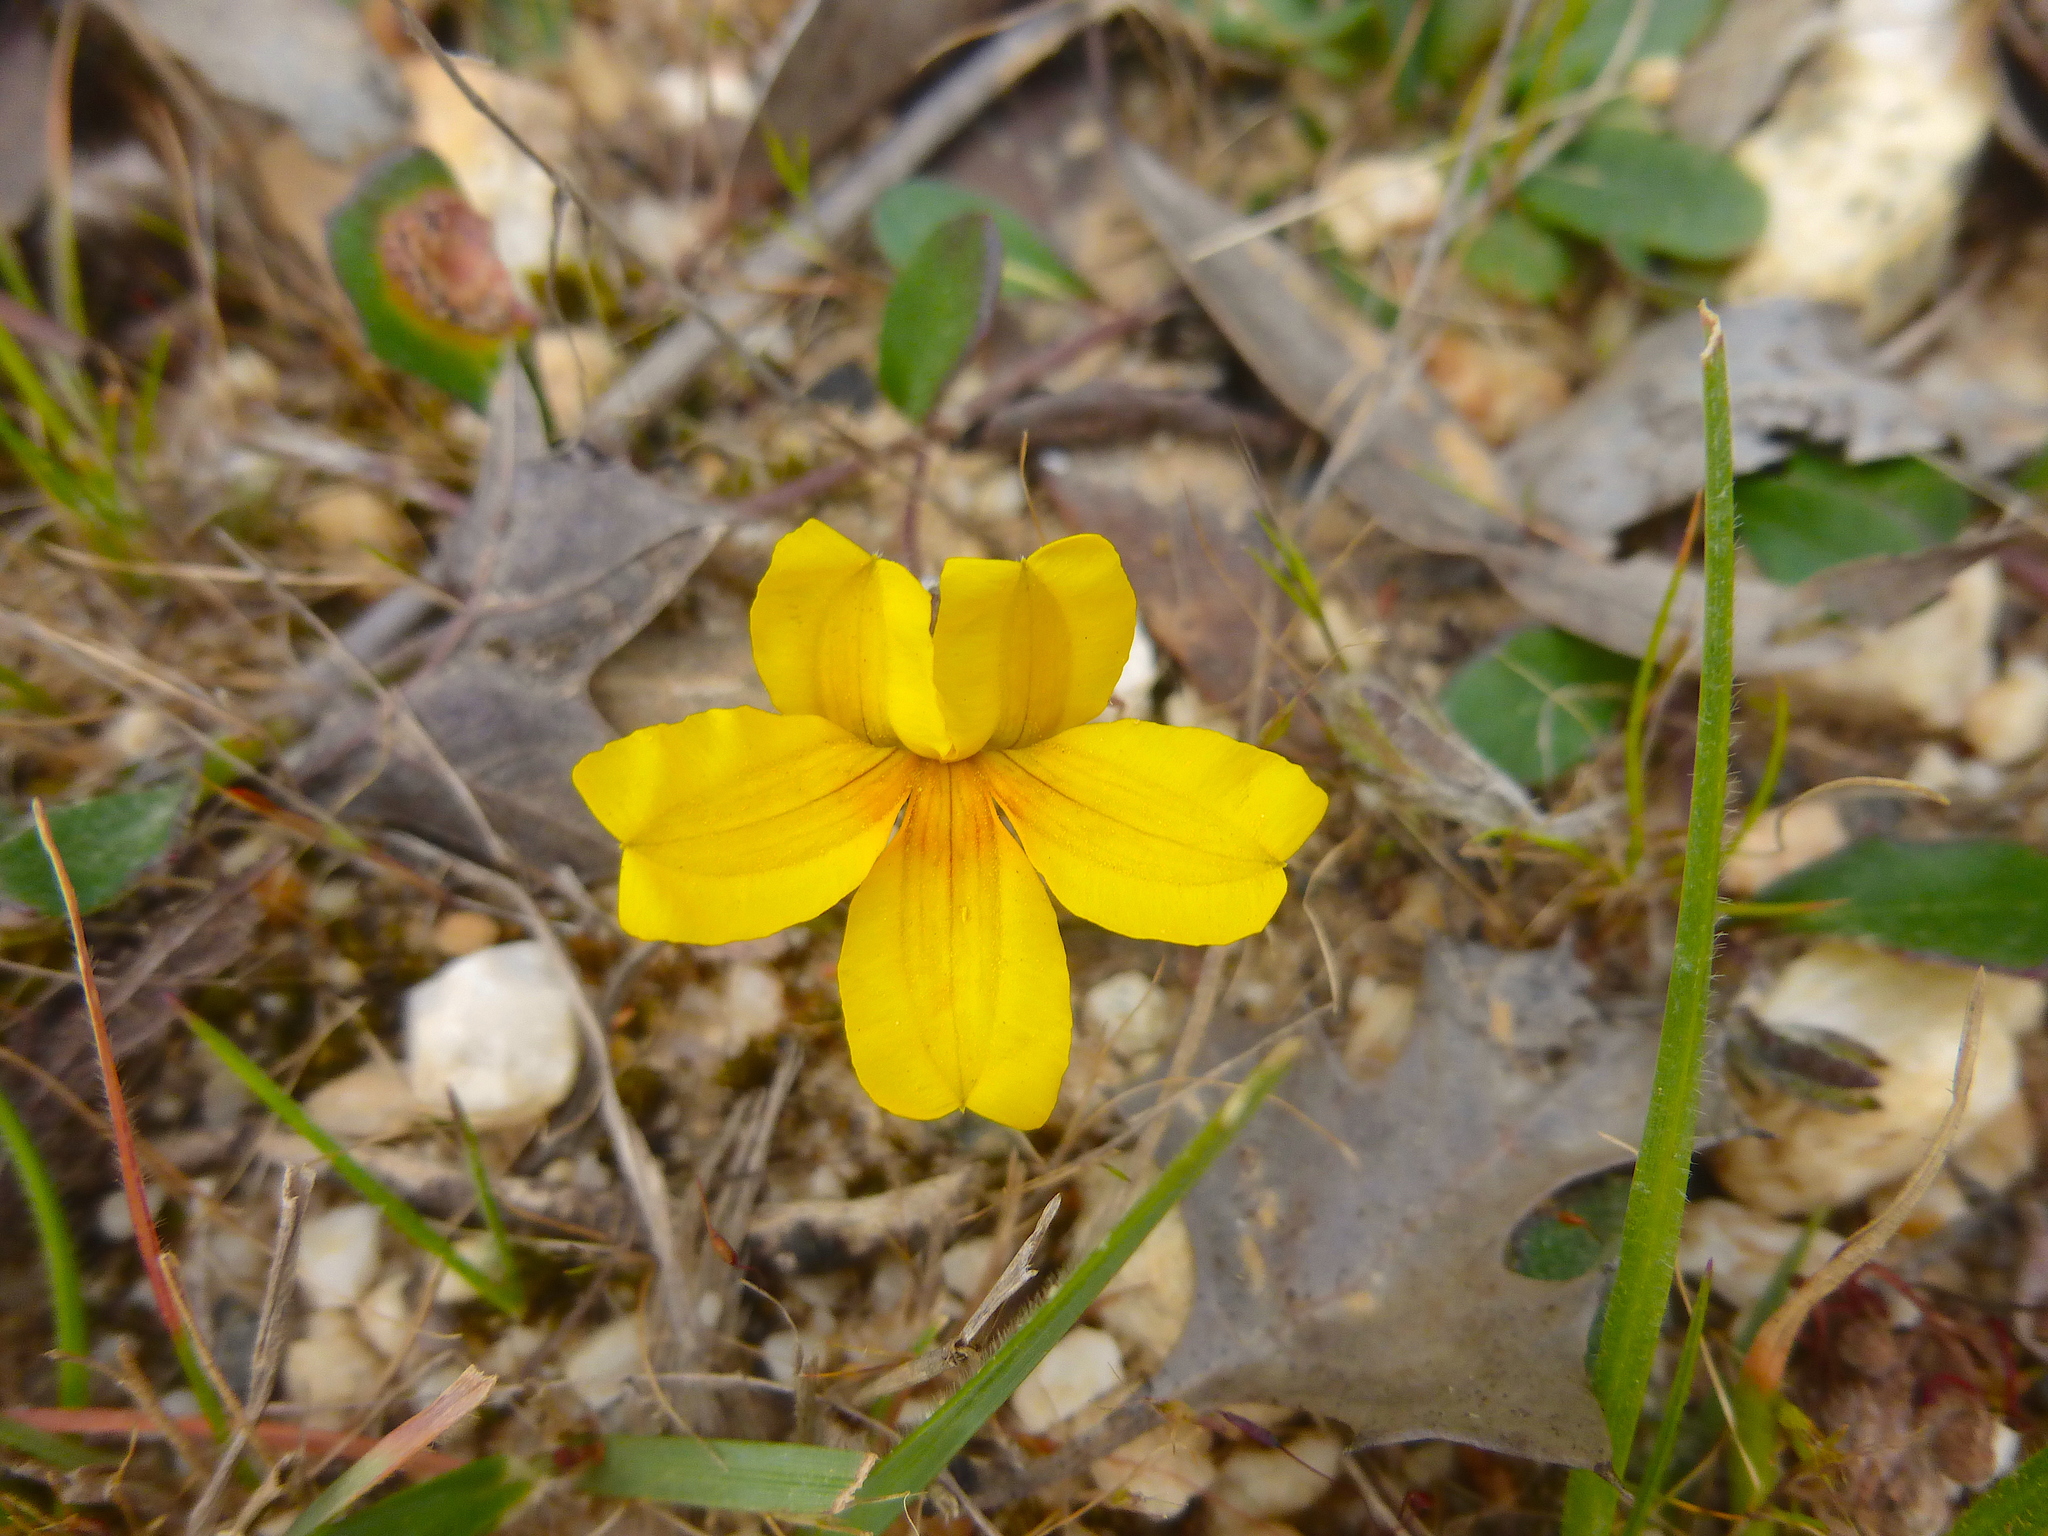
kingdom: Plantae
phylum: Tracheophyta
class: Magnoliopsida
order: Asterales
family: Goodeniaceae
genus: Goodenia
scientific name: Goodenia lanata
